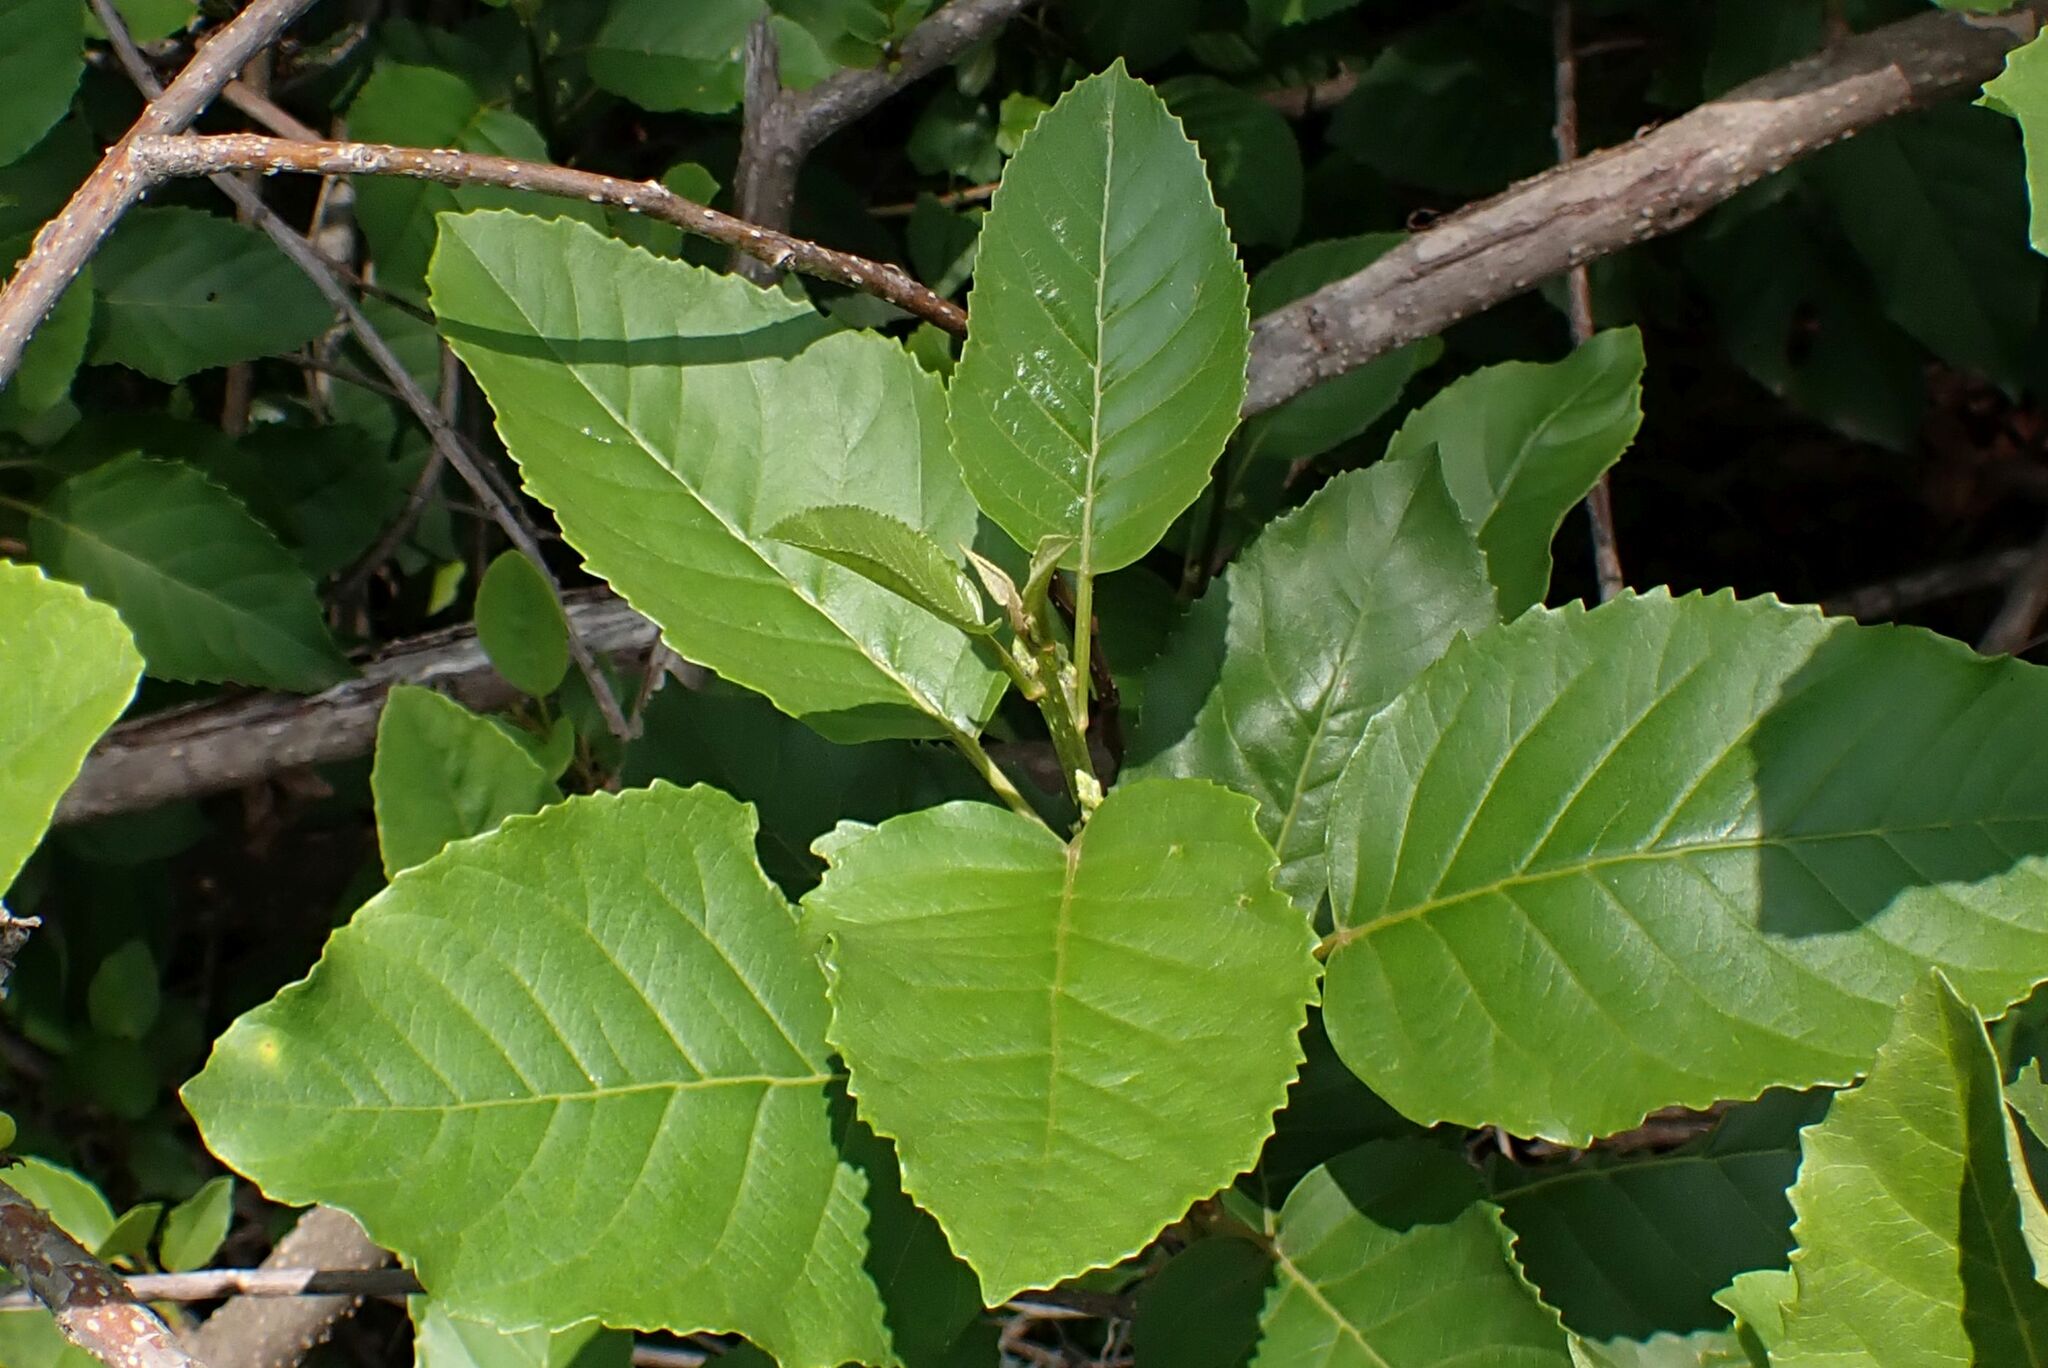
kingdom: Plantae
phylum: Tracheophyta
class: Magnoliopsida
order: Ericales
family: Primulaceae
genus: Maesa
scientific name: Maesa lanceolata
